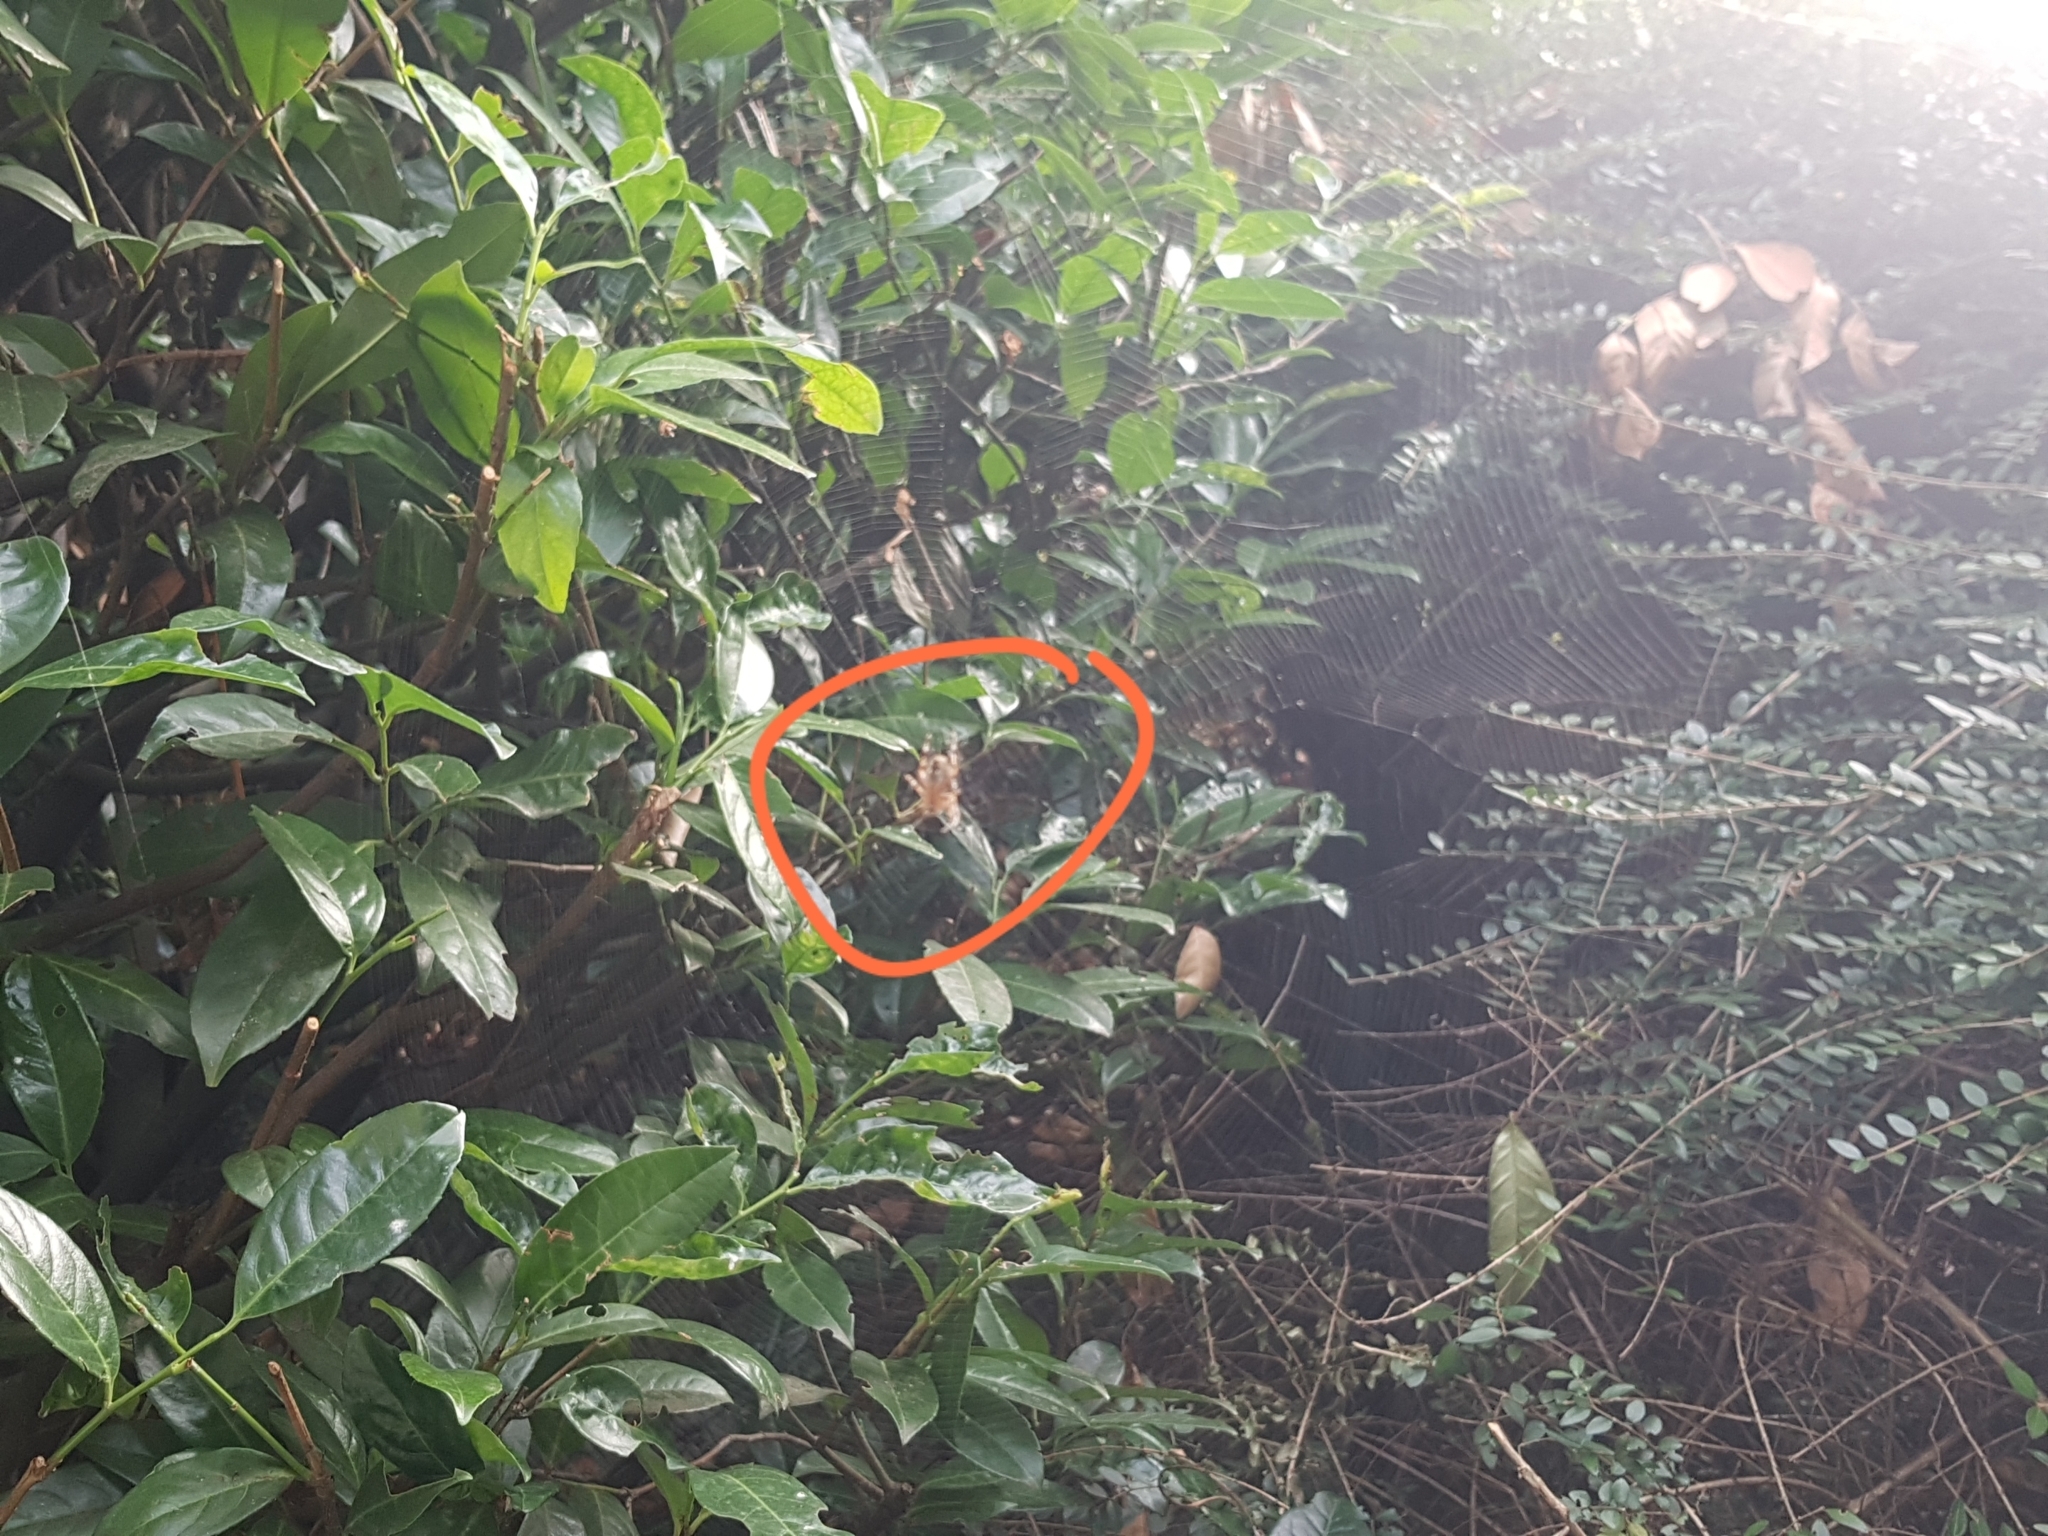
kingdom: Animalia
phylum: Arthropoda
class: Arachnida
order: Araneae
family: Araneidae
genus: Araneus
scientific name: Araneus diadematus
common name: Cross orbweaver
